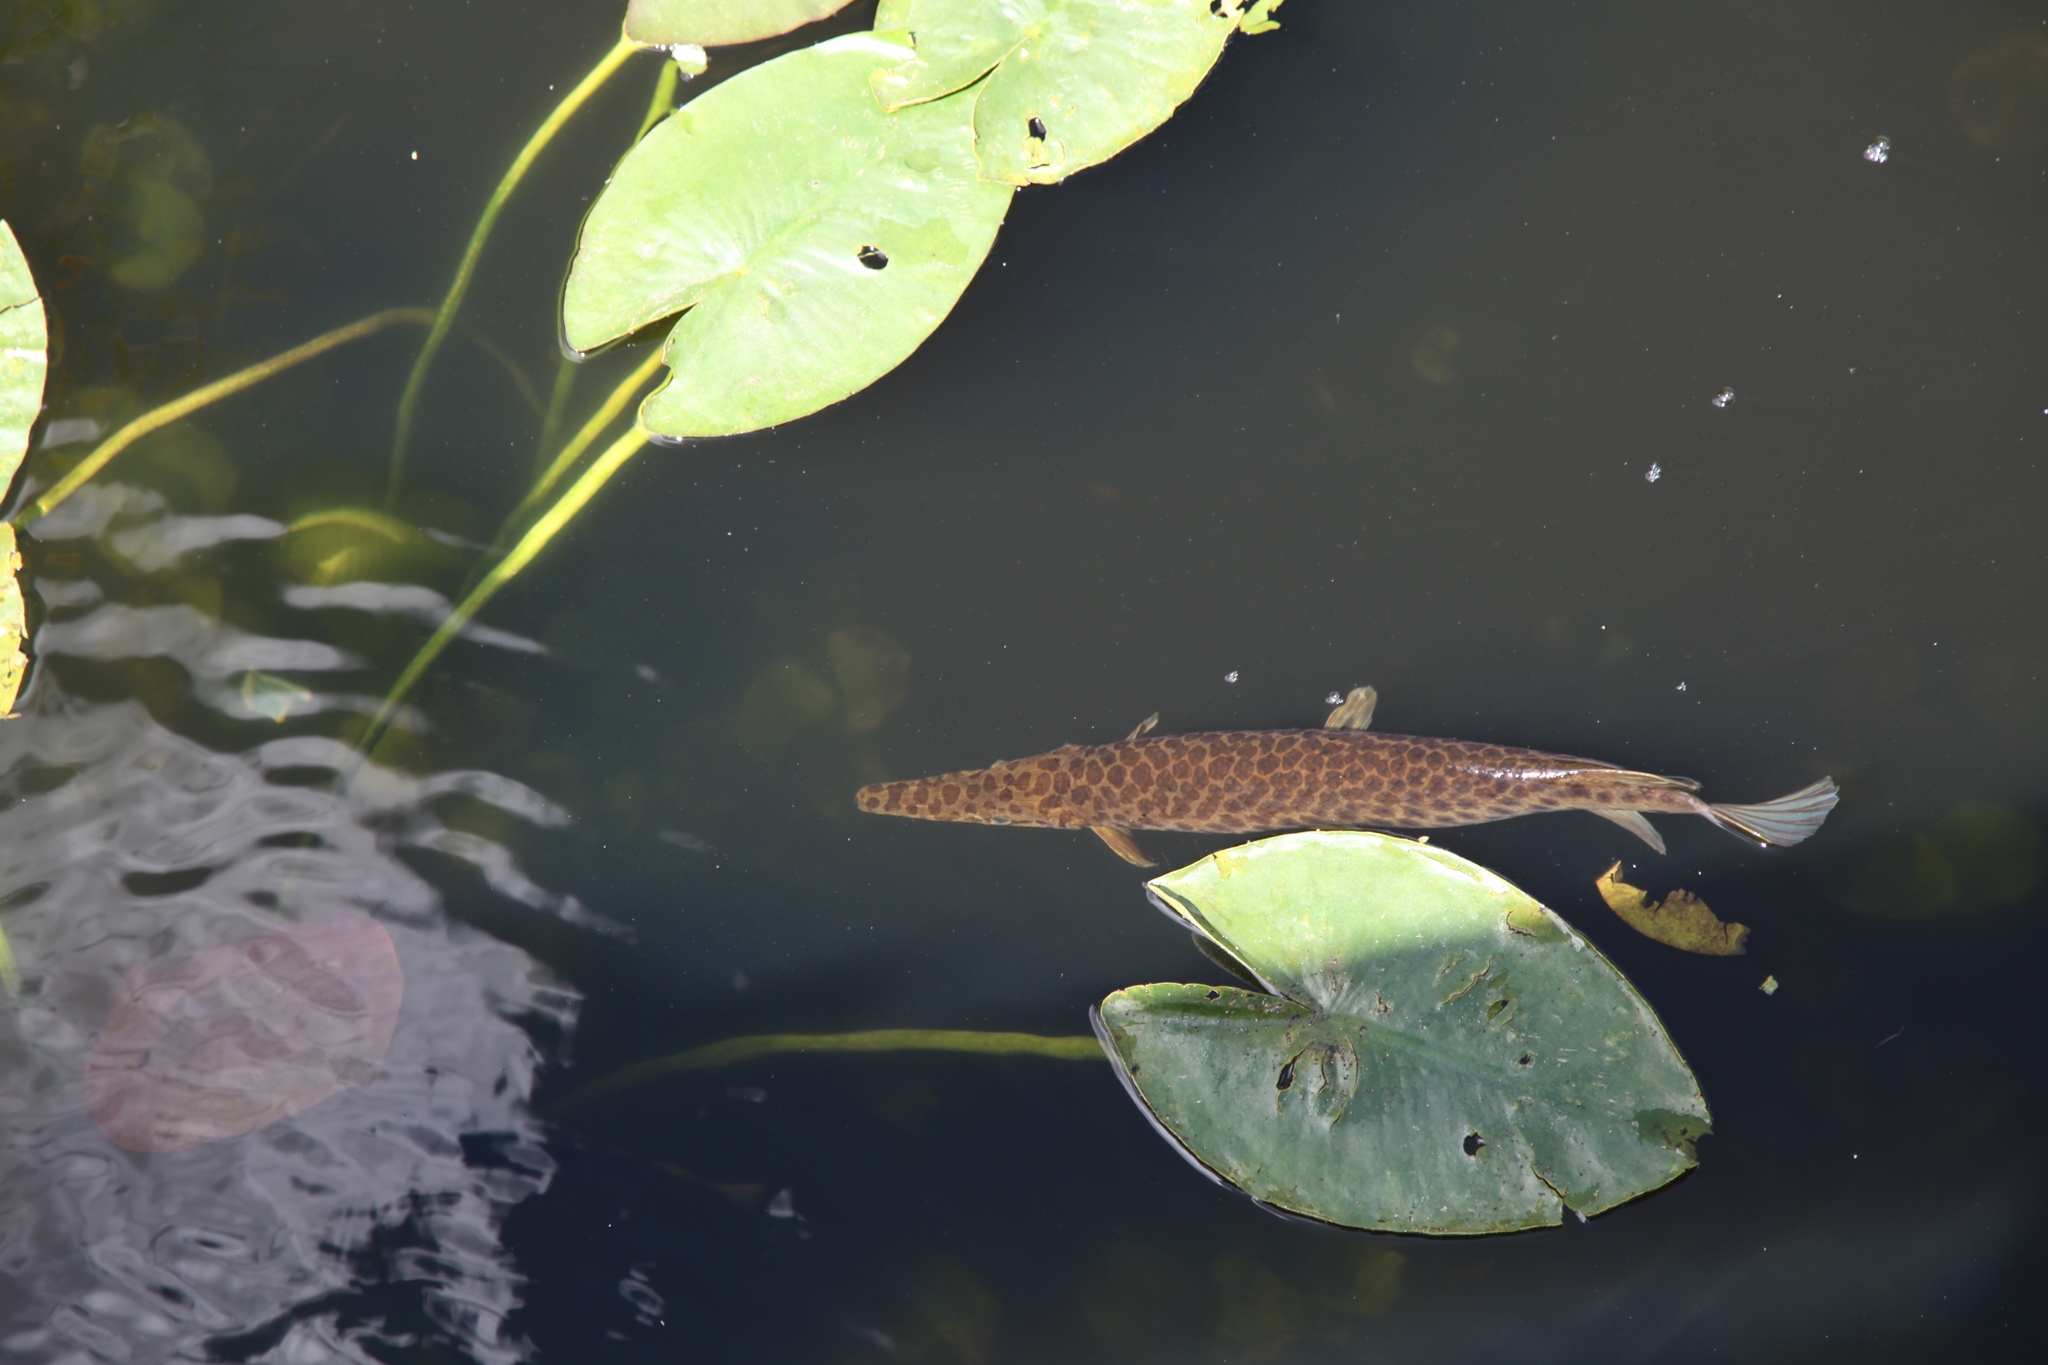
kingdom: Animalia
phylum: Chordata
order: Lepisosteiformes
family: Lepisosteidae
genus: Lepisosteus
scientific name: Lepisosteus platyrhincus
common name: Florida gar
